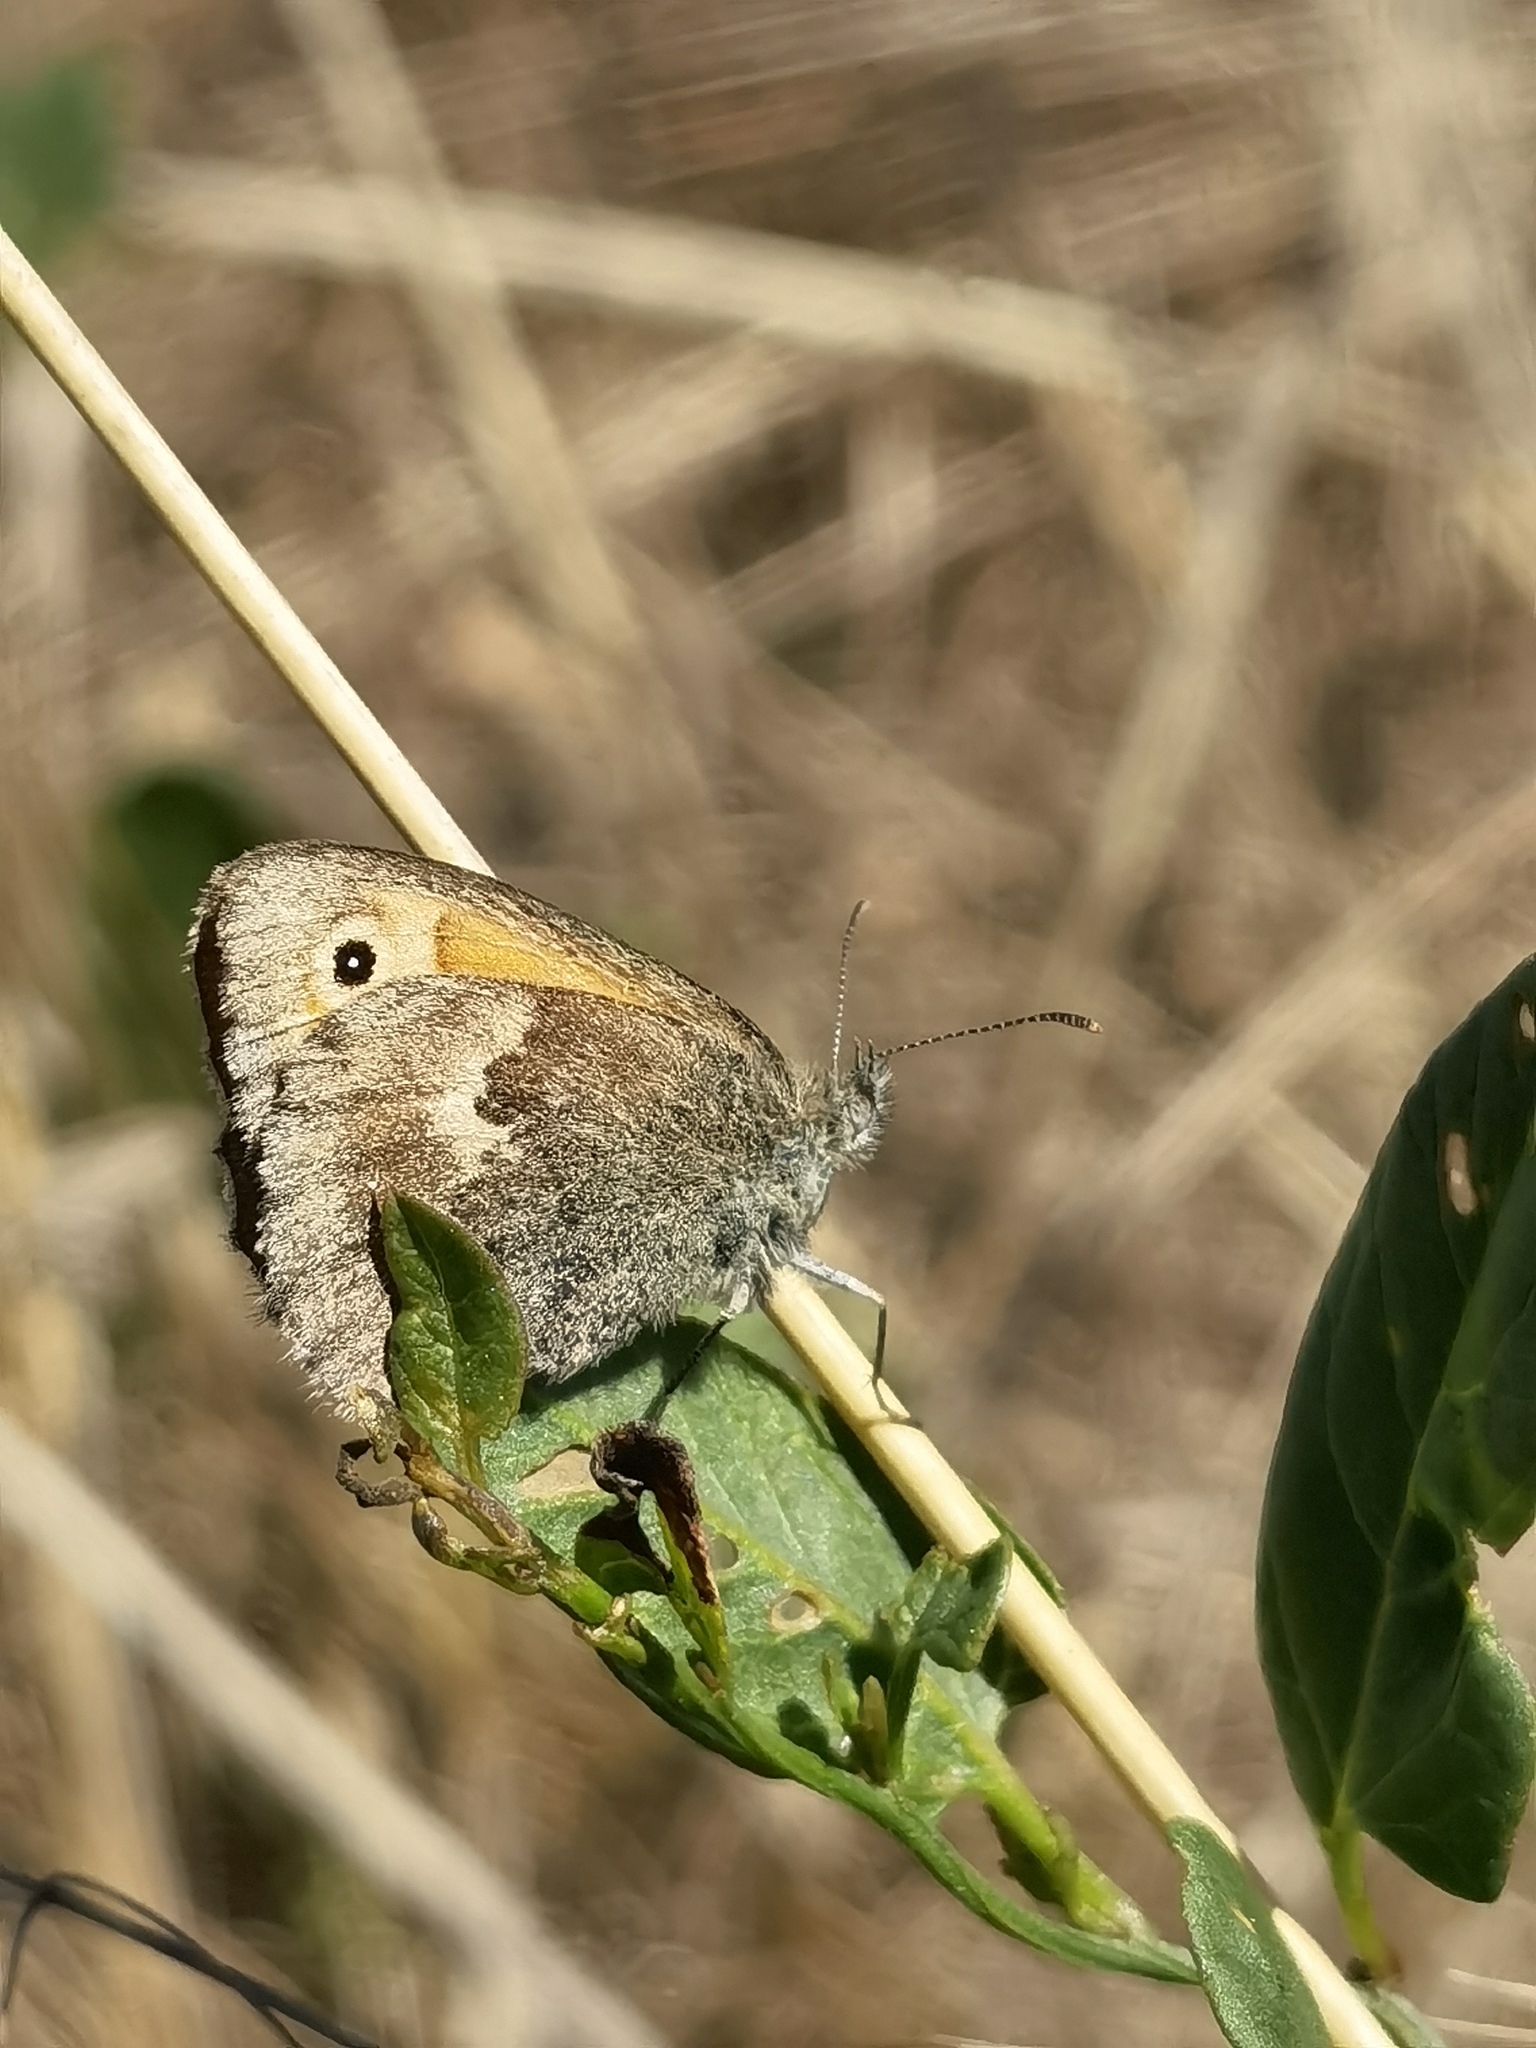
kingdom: Animalia
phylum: Arthropoda
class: Insecta
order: Lepidoptera
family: Nymphalidae
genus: Coenonympha
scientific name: Coenonympha pamphilus
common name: Small heath
